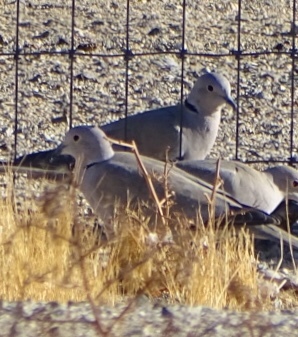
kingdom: Animalia
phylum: Chordata
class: Aves
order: Columbiformes
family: Columbidae
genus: Streptopelia
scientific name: Streptopelia decaocto
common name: Eurasian collared dove
